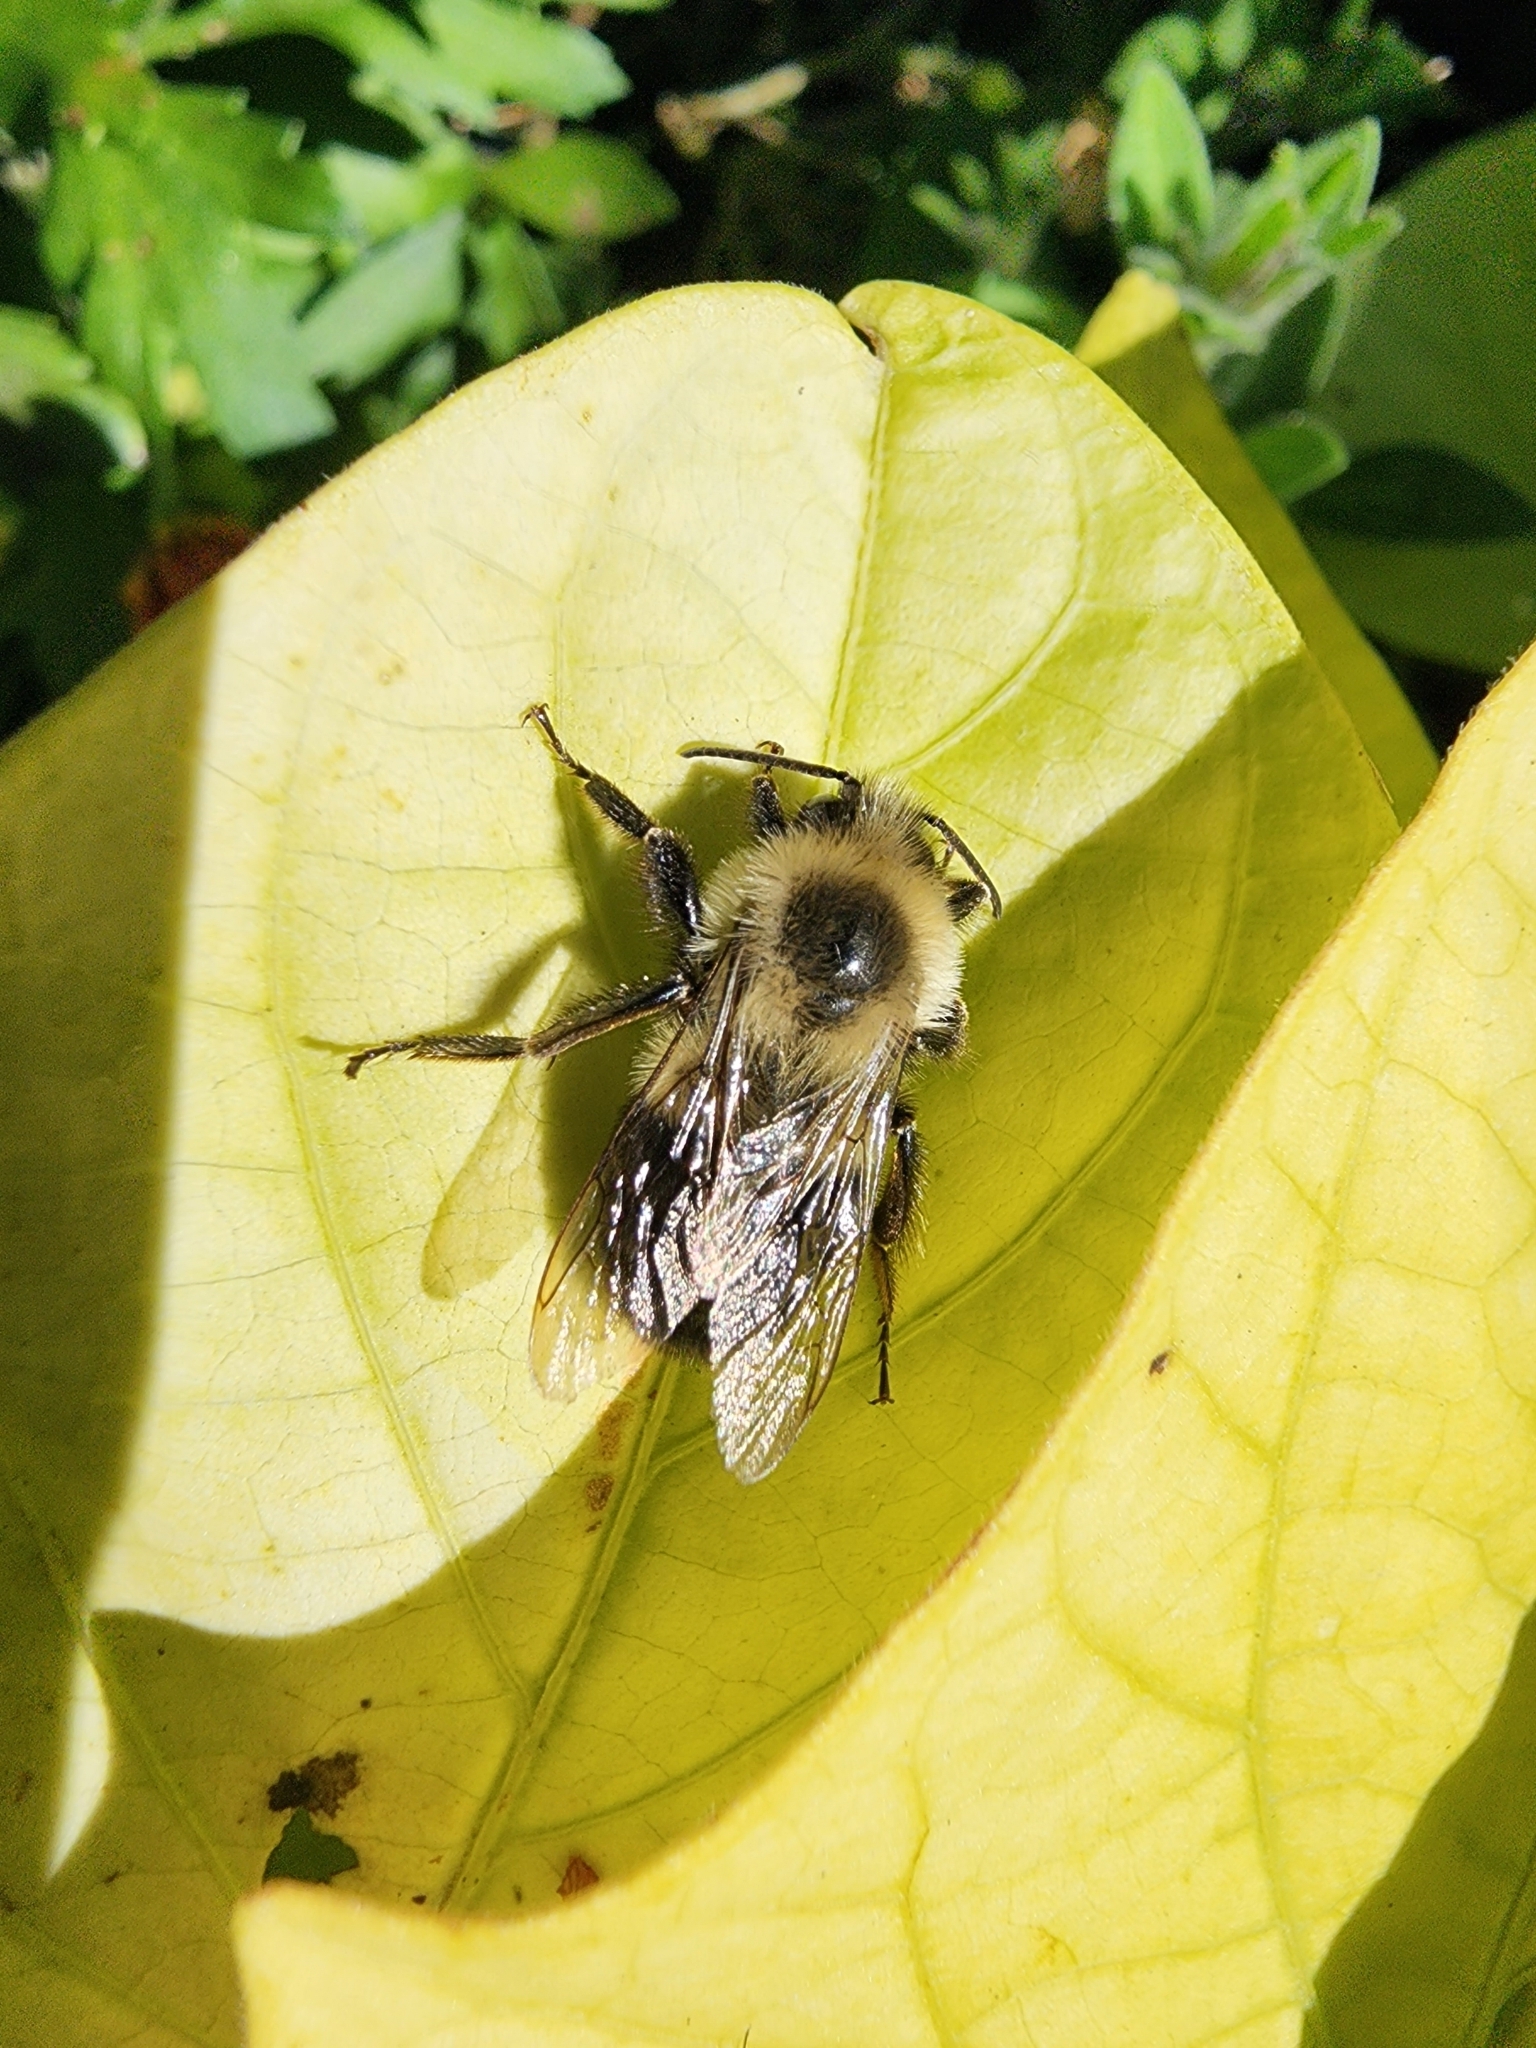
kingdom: Animalia
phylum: Arthropoda
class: Insecta
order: Hymenoptera
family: Apidae
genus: Bombus
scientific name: Bombus impatiens
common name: Common eastern bumble bee
